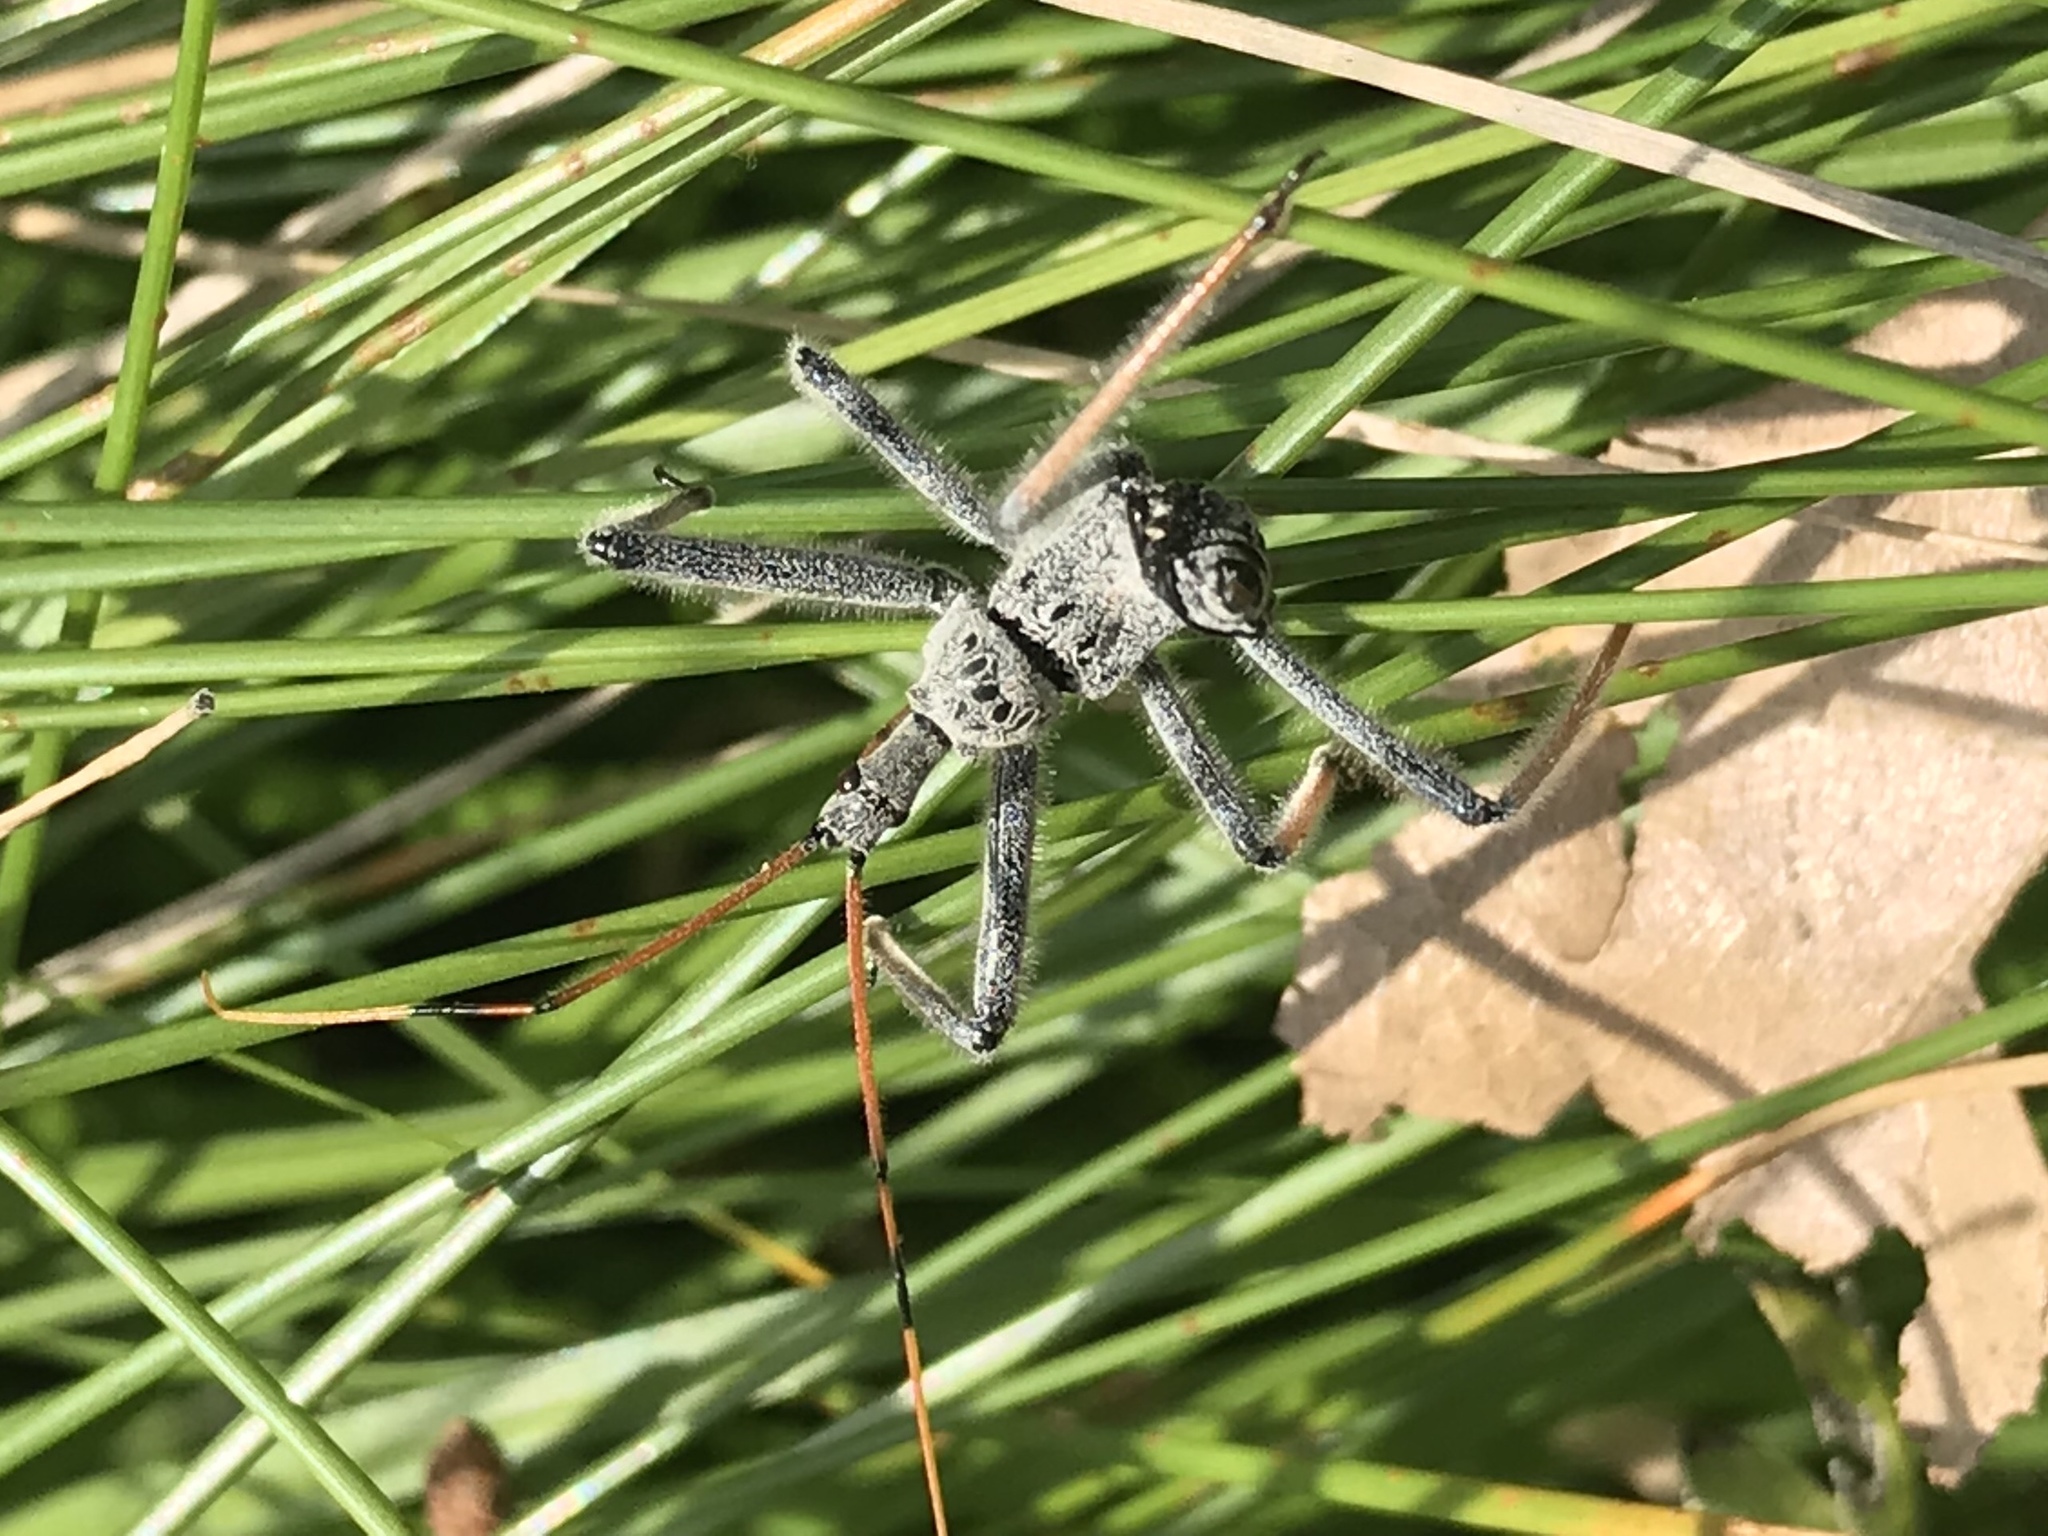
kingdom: Animalia
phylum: Arthropoda
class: Insecta
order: Hemiptera
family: Reduviidae
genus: Arilus
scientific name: Arilus cristatus
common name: North american wheel bug
